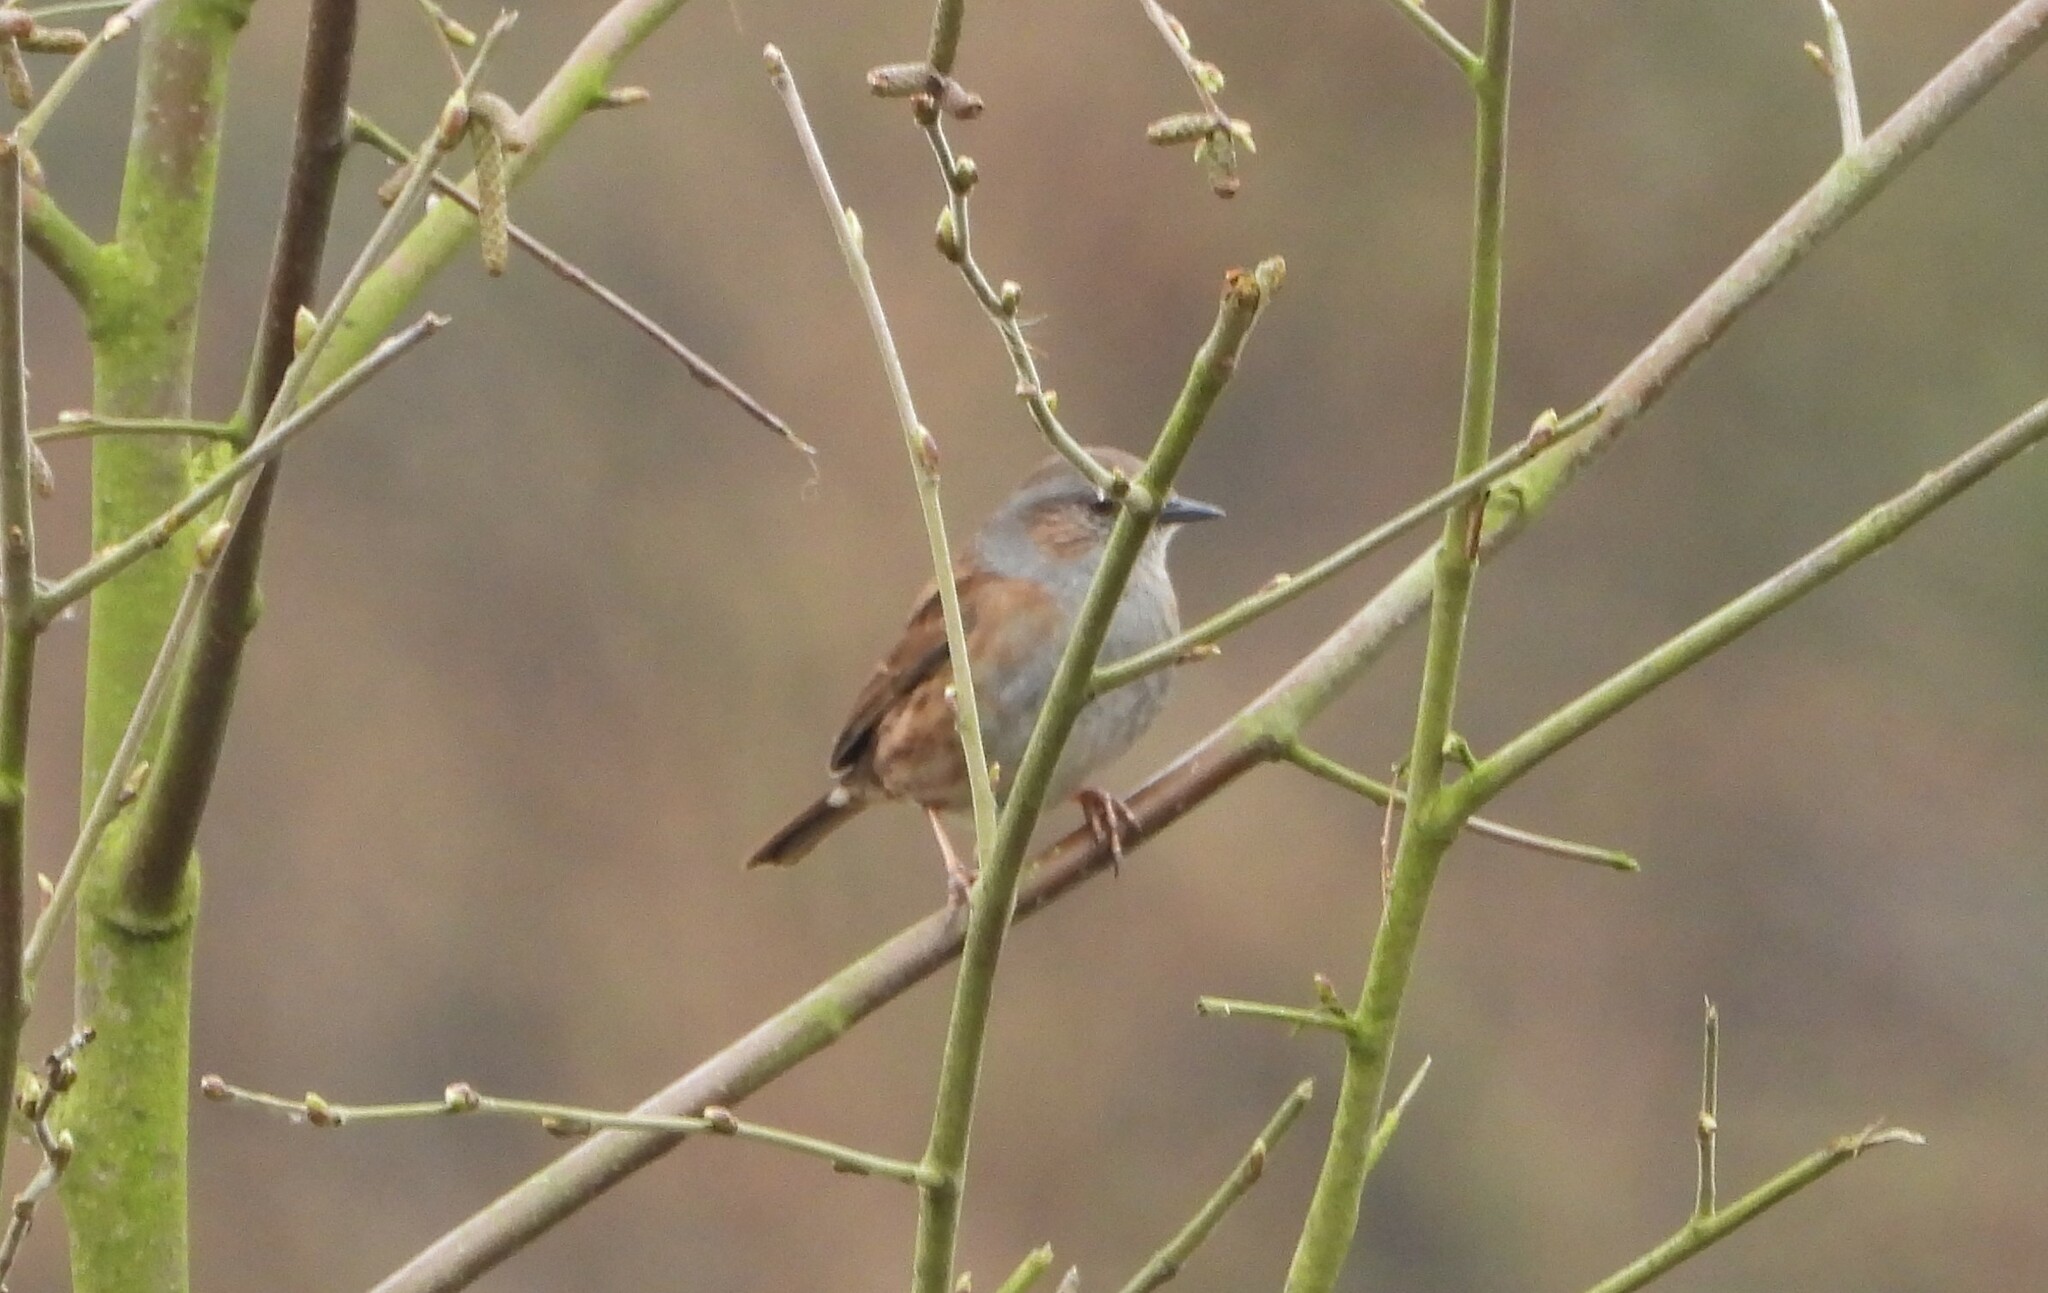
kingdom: Animalia
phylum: Chordata
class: Aves
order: Passeriformes
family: Prunellidae
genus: Prunella
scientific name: Prunella modularis
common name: Dunnock
